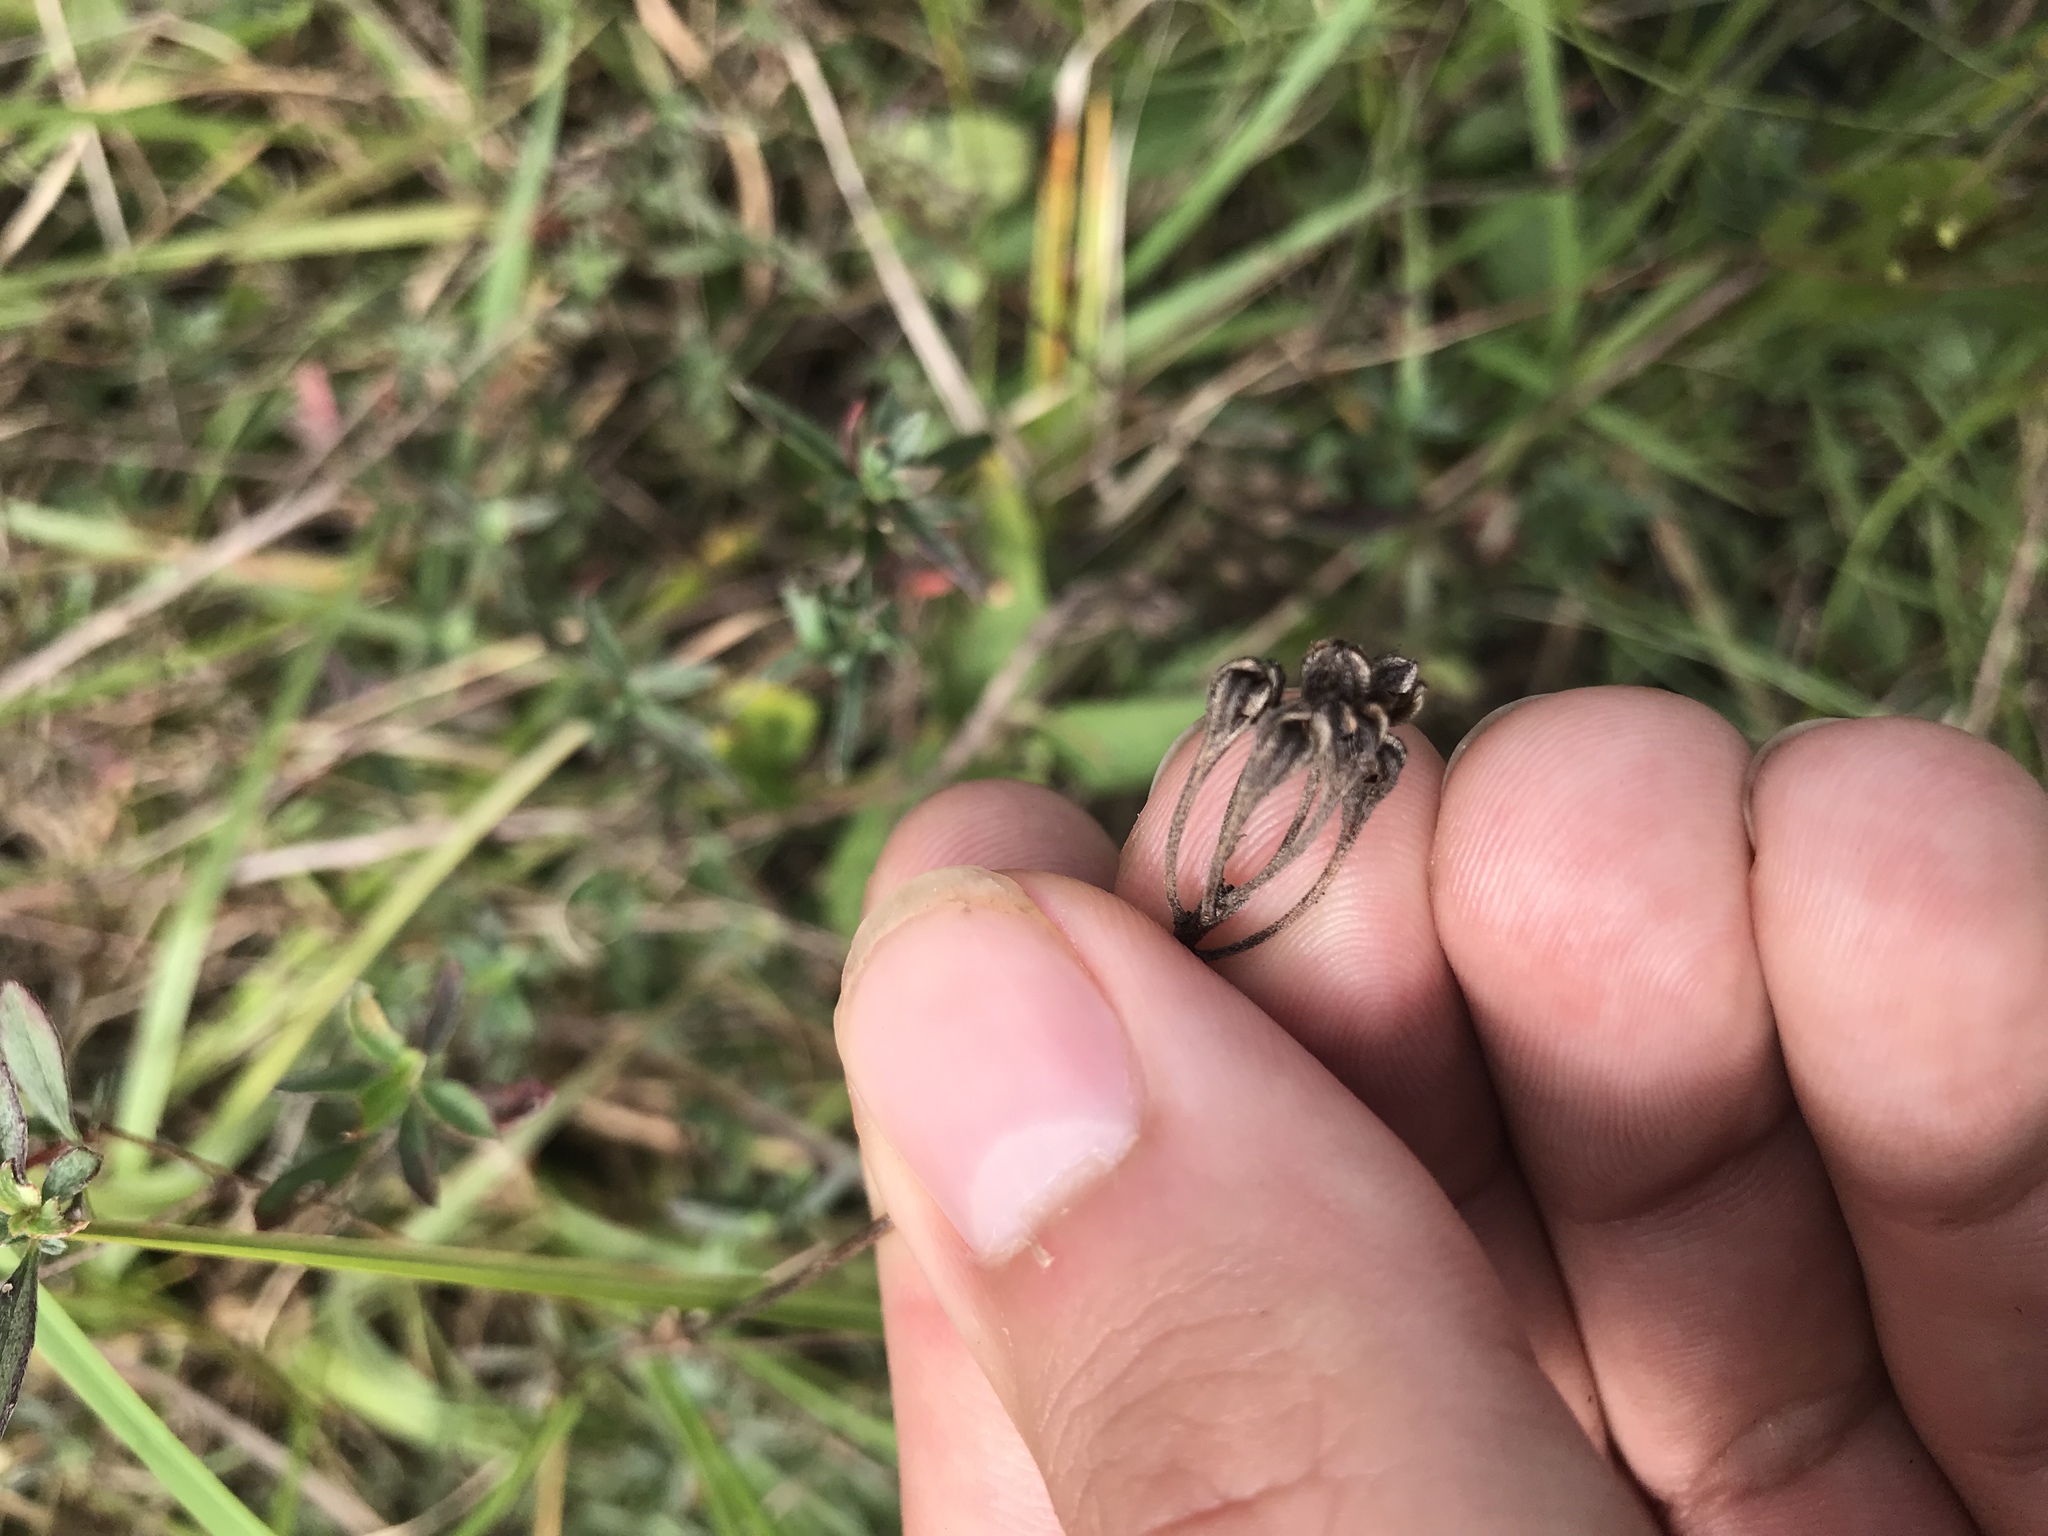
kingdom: Plantae
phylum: Tracheophyta
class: Magnoliopsida
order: Myrtales
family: Onagraceae
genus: Oenothera
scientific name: Oenothera fruticosa
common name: Southern sundrops
